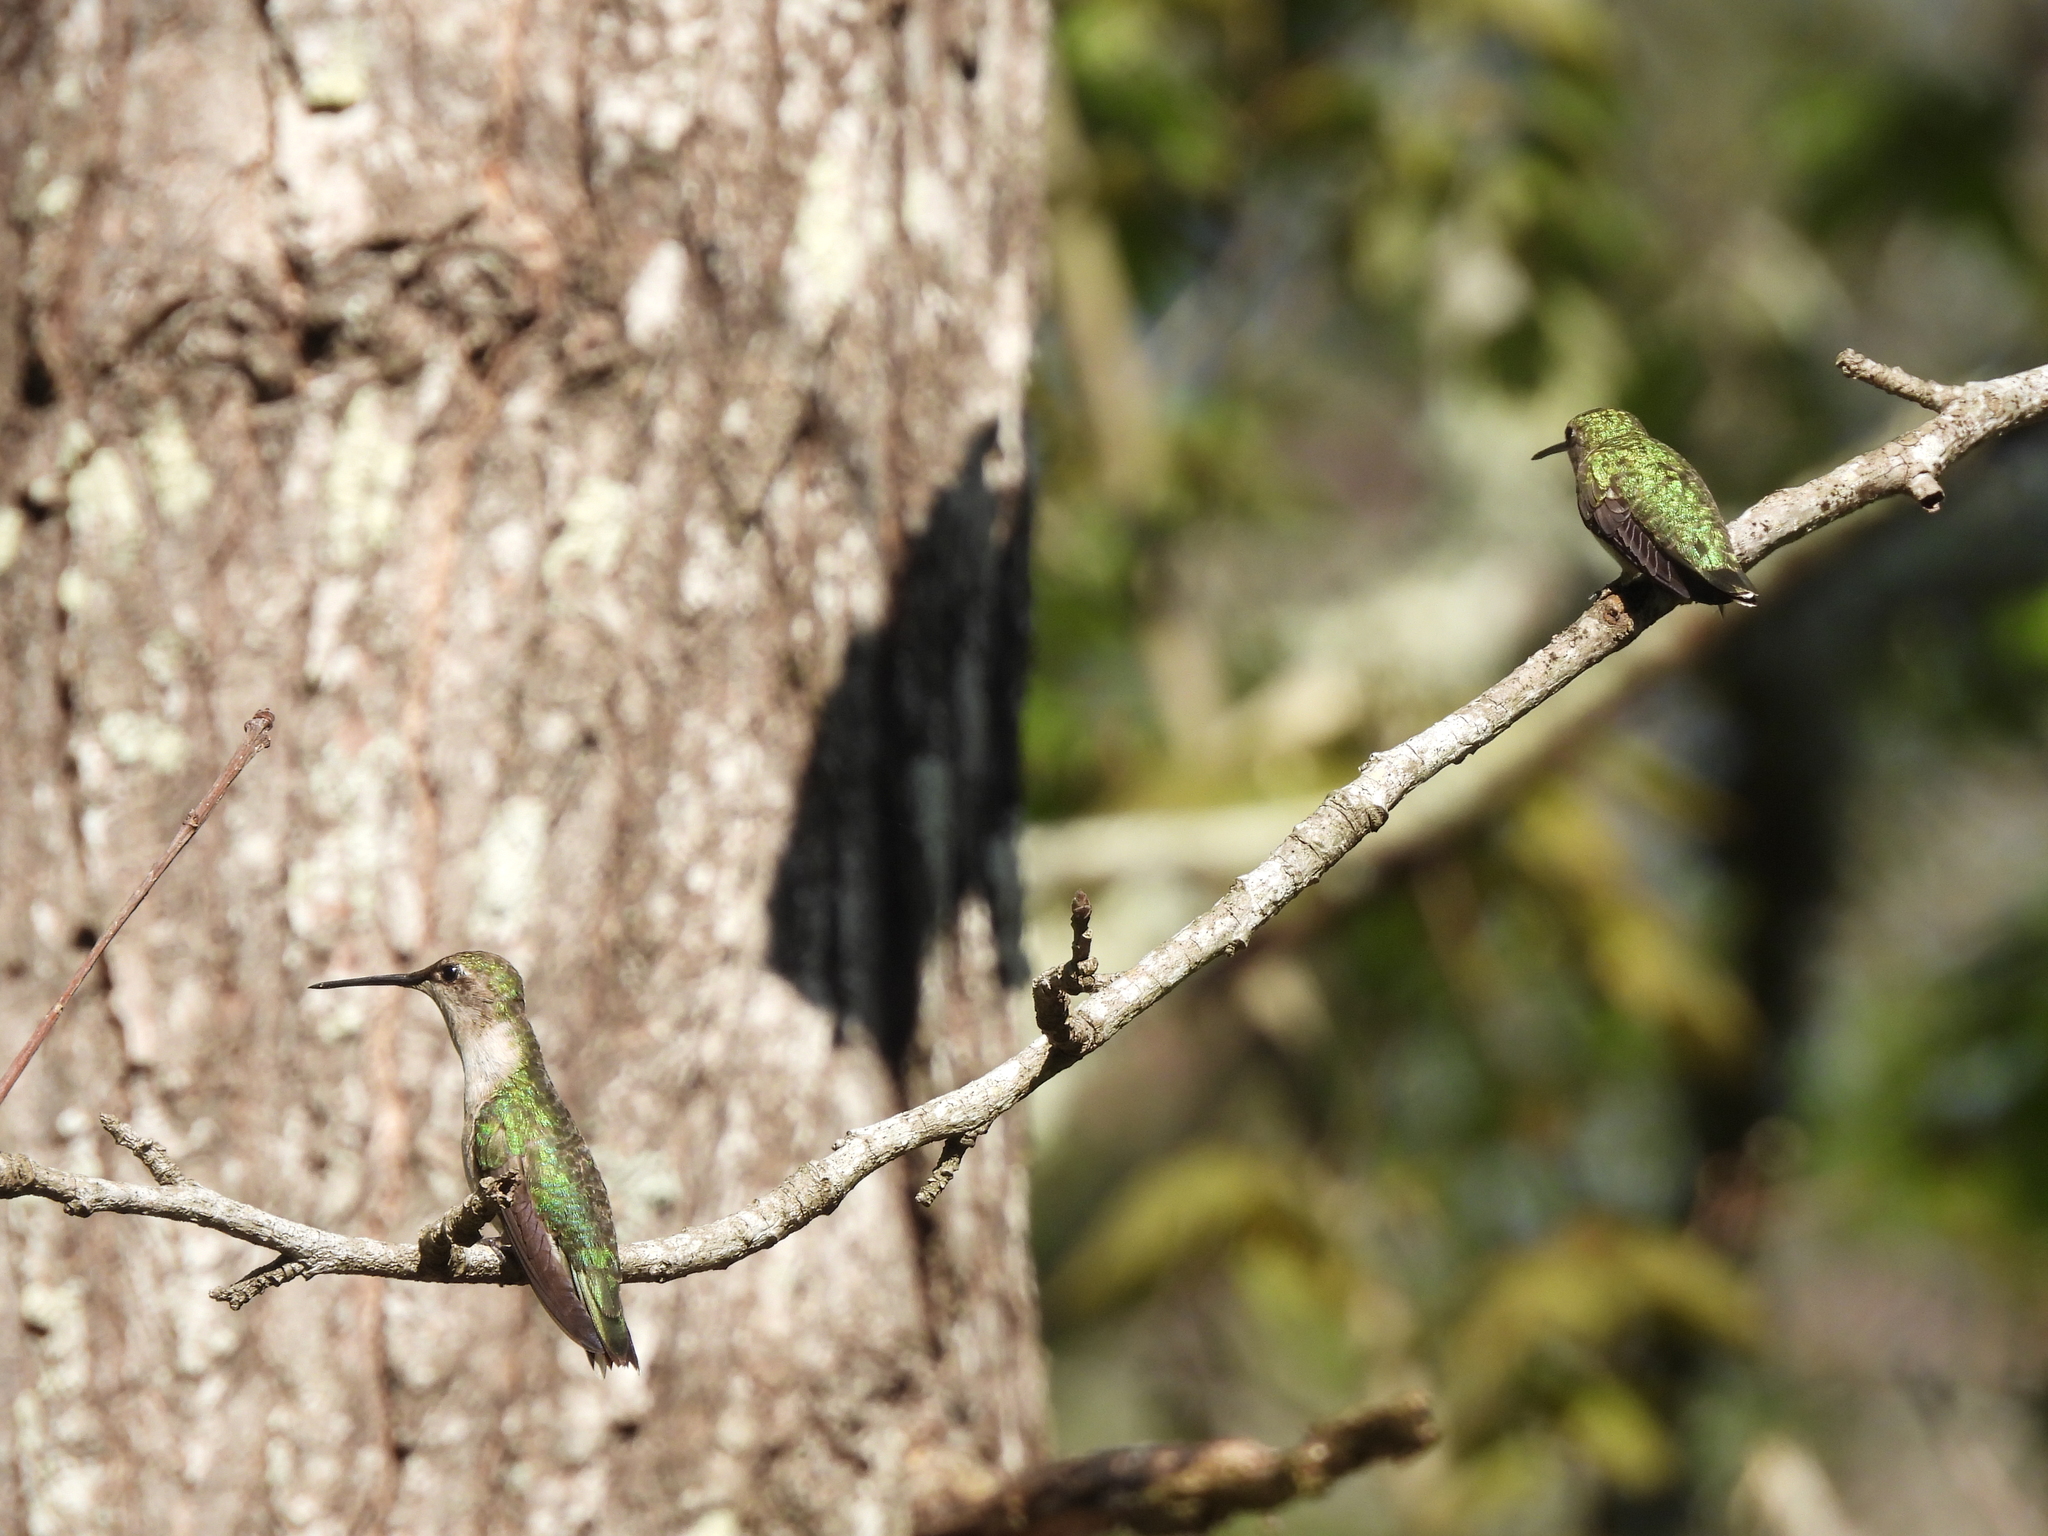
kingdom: Animalia
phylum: Chordata
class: Aves
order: Apodiformes
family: Trochilidae
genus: Archilochus
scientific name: Archilochus colubris
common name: Ruby-throated hummingbird
